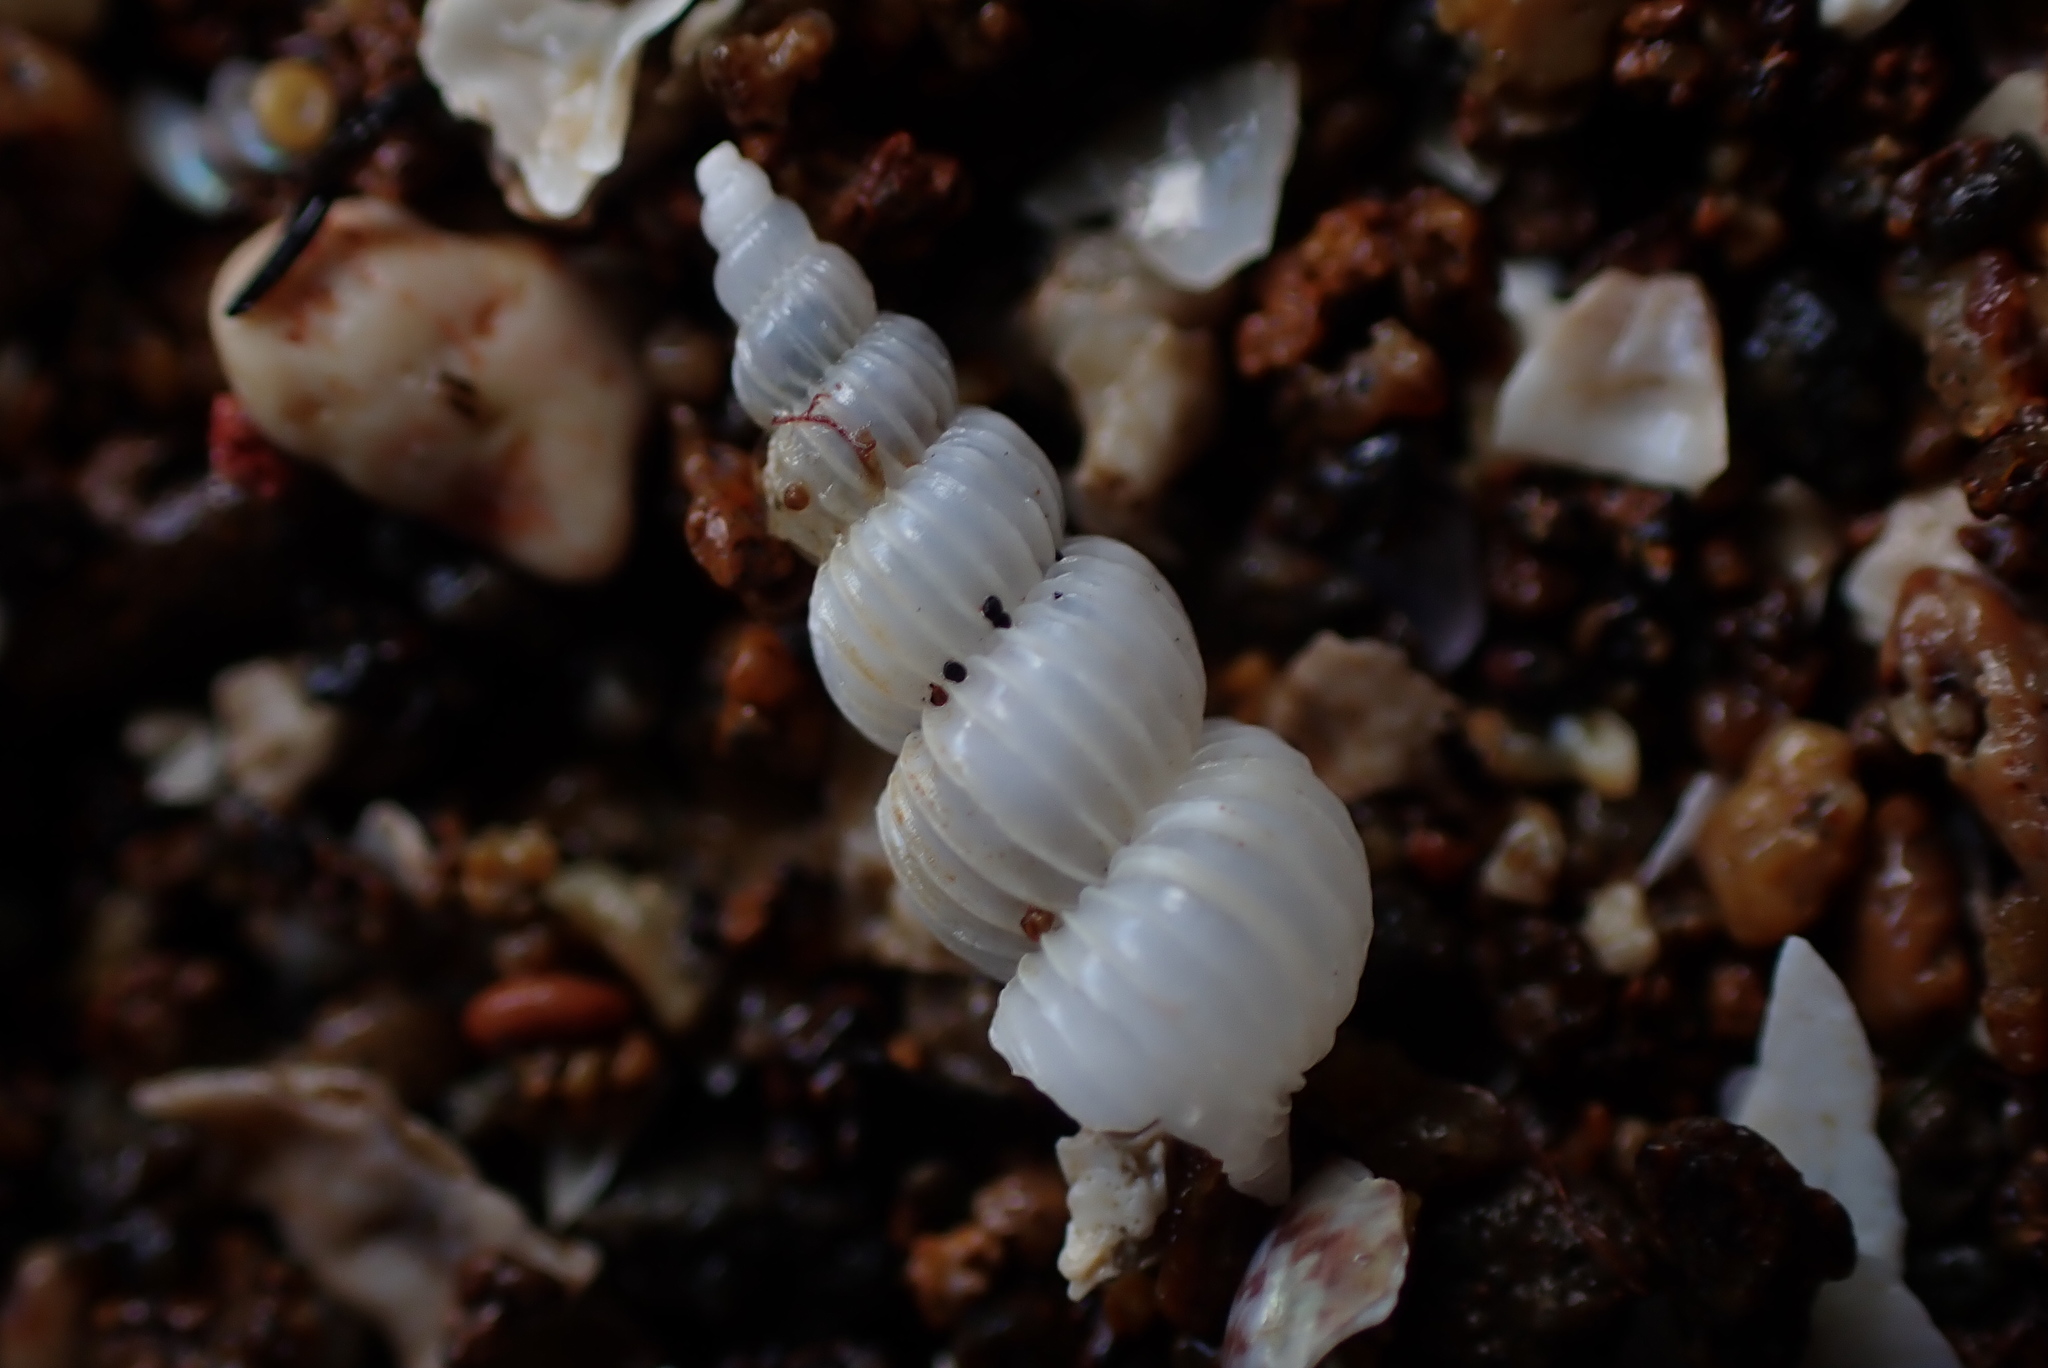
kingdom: Animalia
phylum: Mollusca
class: Gastropoda
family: Epitoniidae
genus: Epitonium
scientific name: Epitonium jukesianum
